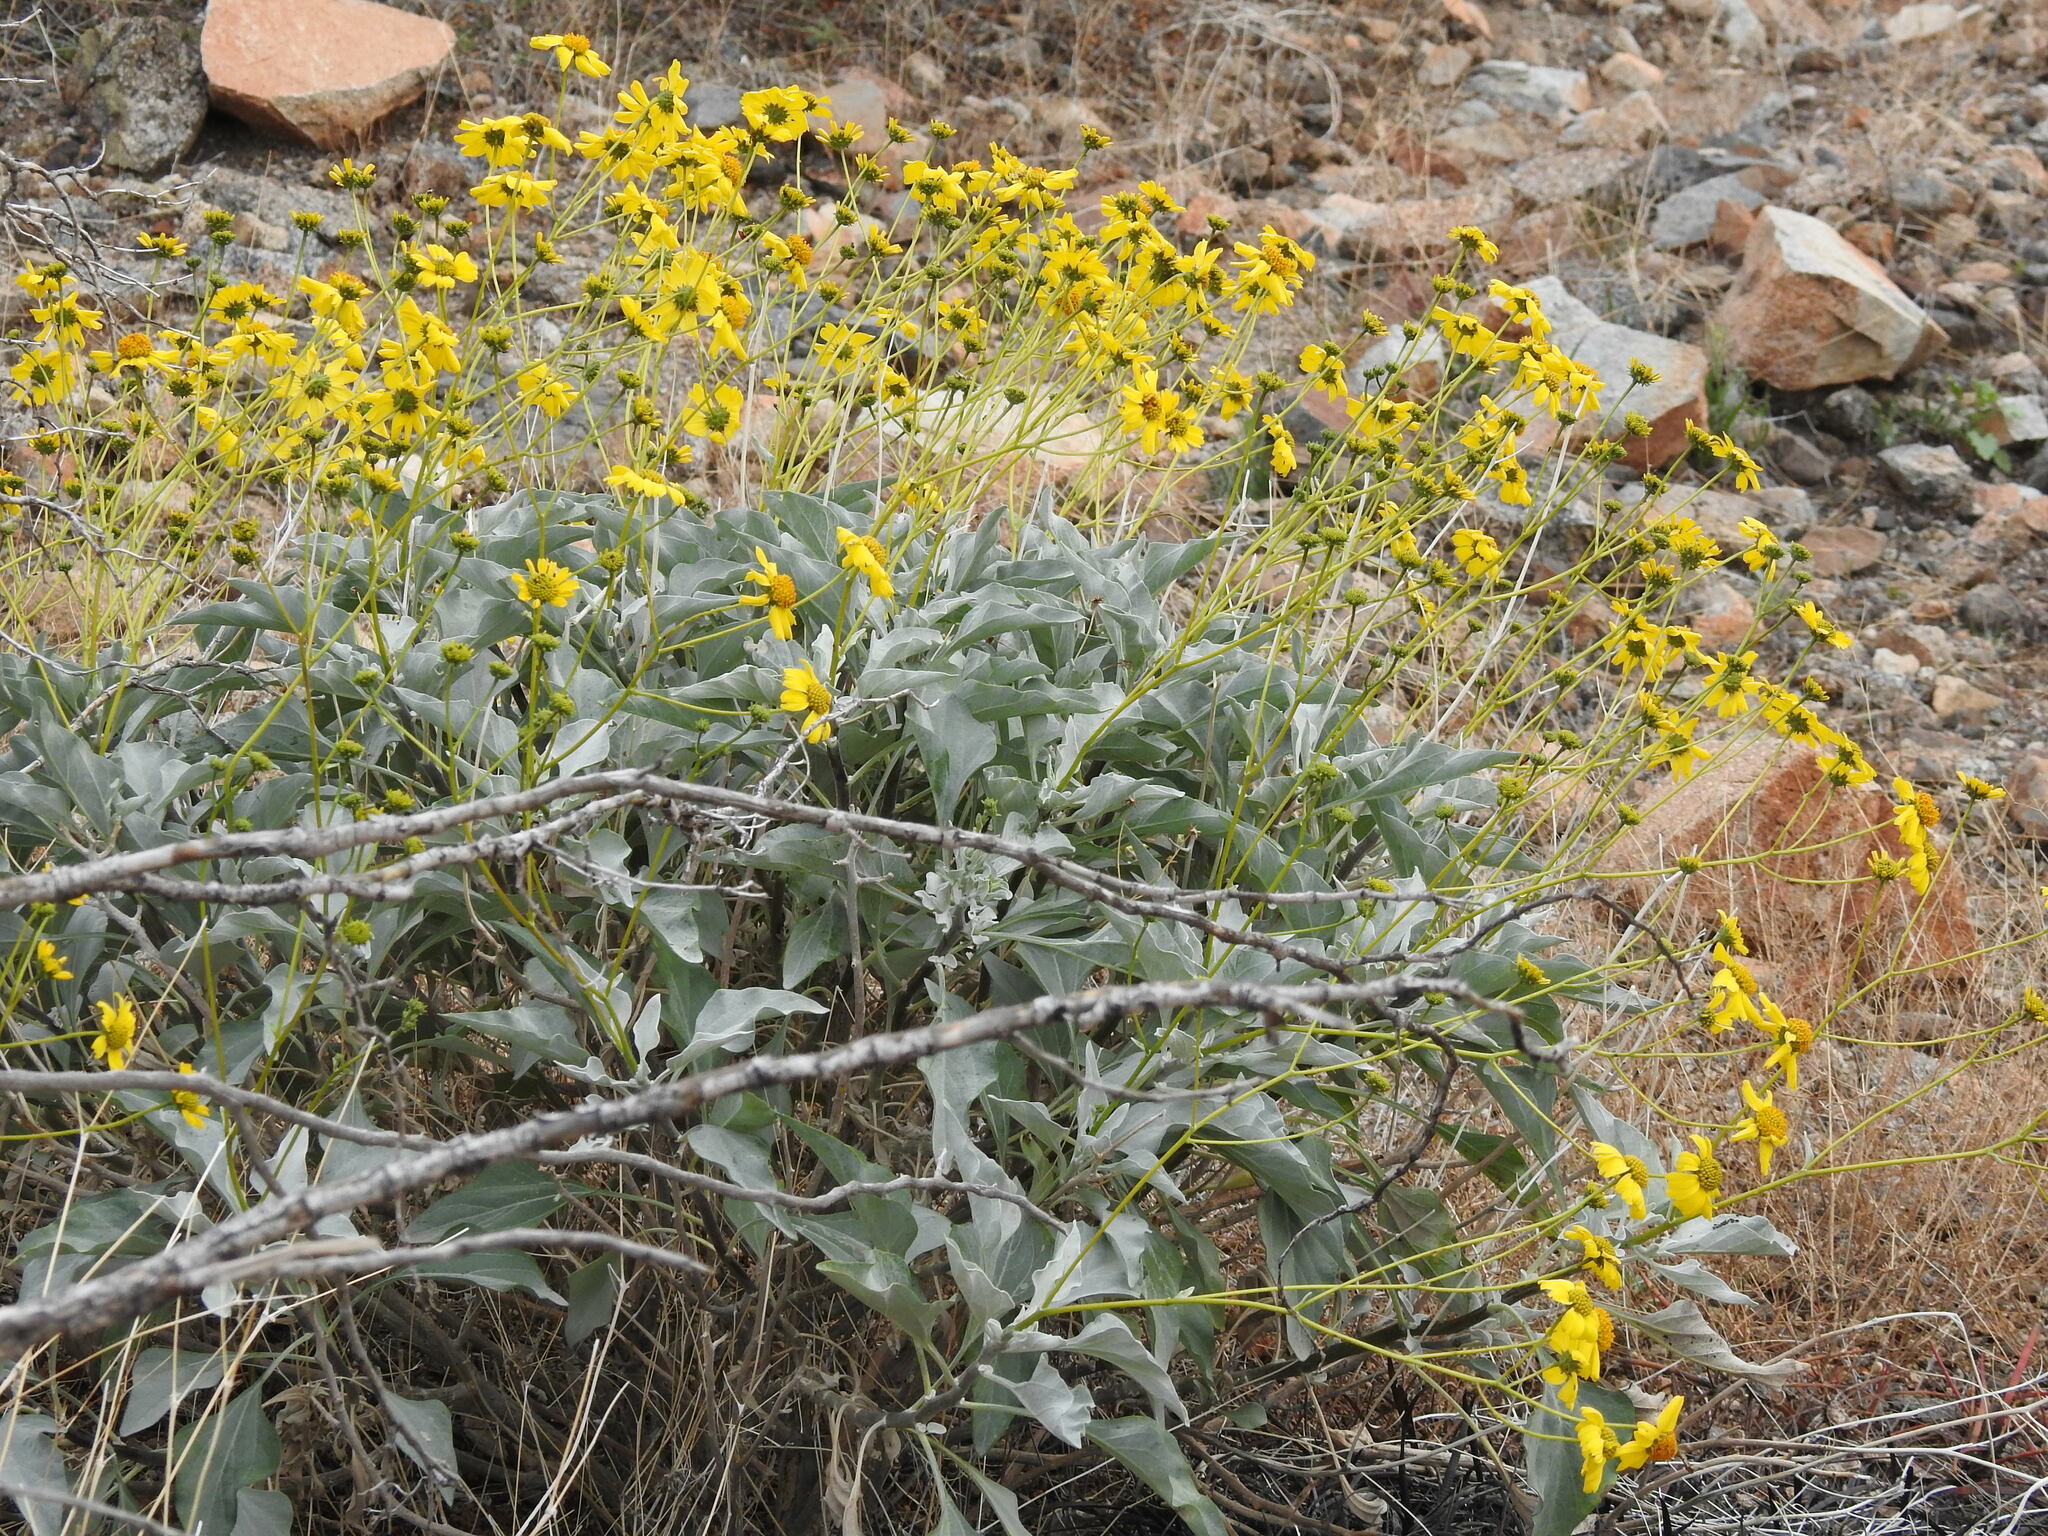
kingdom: Plantae
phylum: Tracheophyta
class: Magnoliopsida
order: Asterales
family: Asteraceae
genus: Encelia
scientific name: Encelia farinosa
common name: Brittlebush
